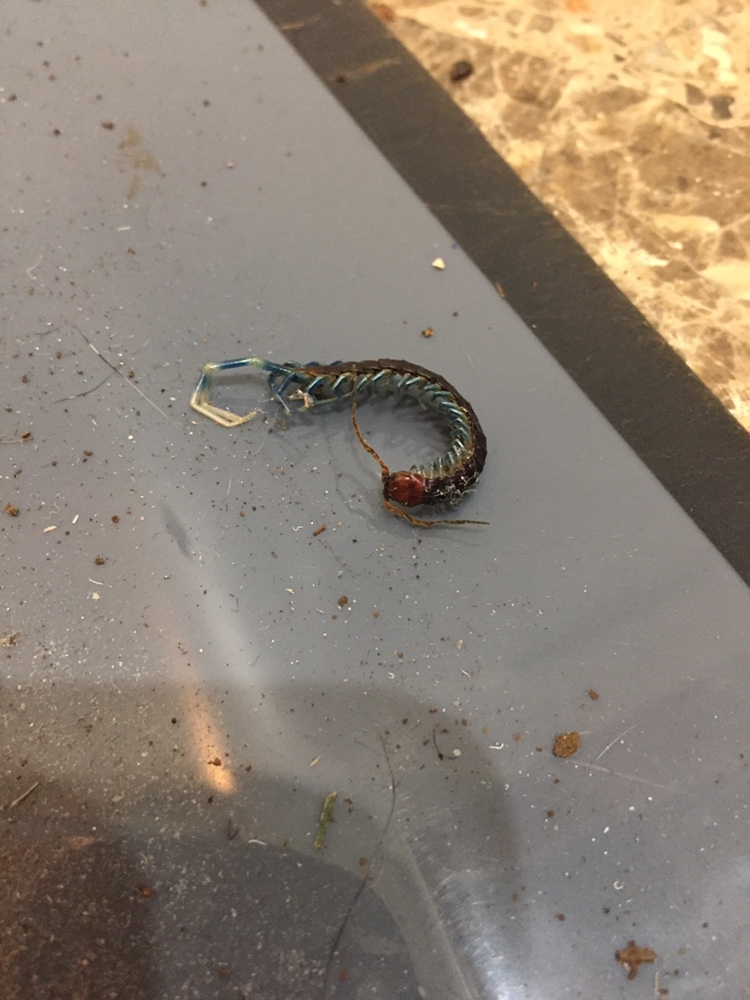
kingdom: Animalia
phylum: Arthropoda
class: Chilopoda
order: Scolopendromorpha
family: Scolopendridae
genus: Otostigmus
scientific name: Otostigmus scaber
